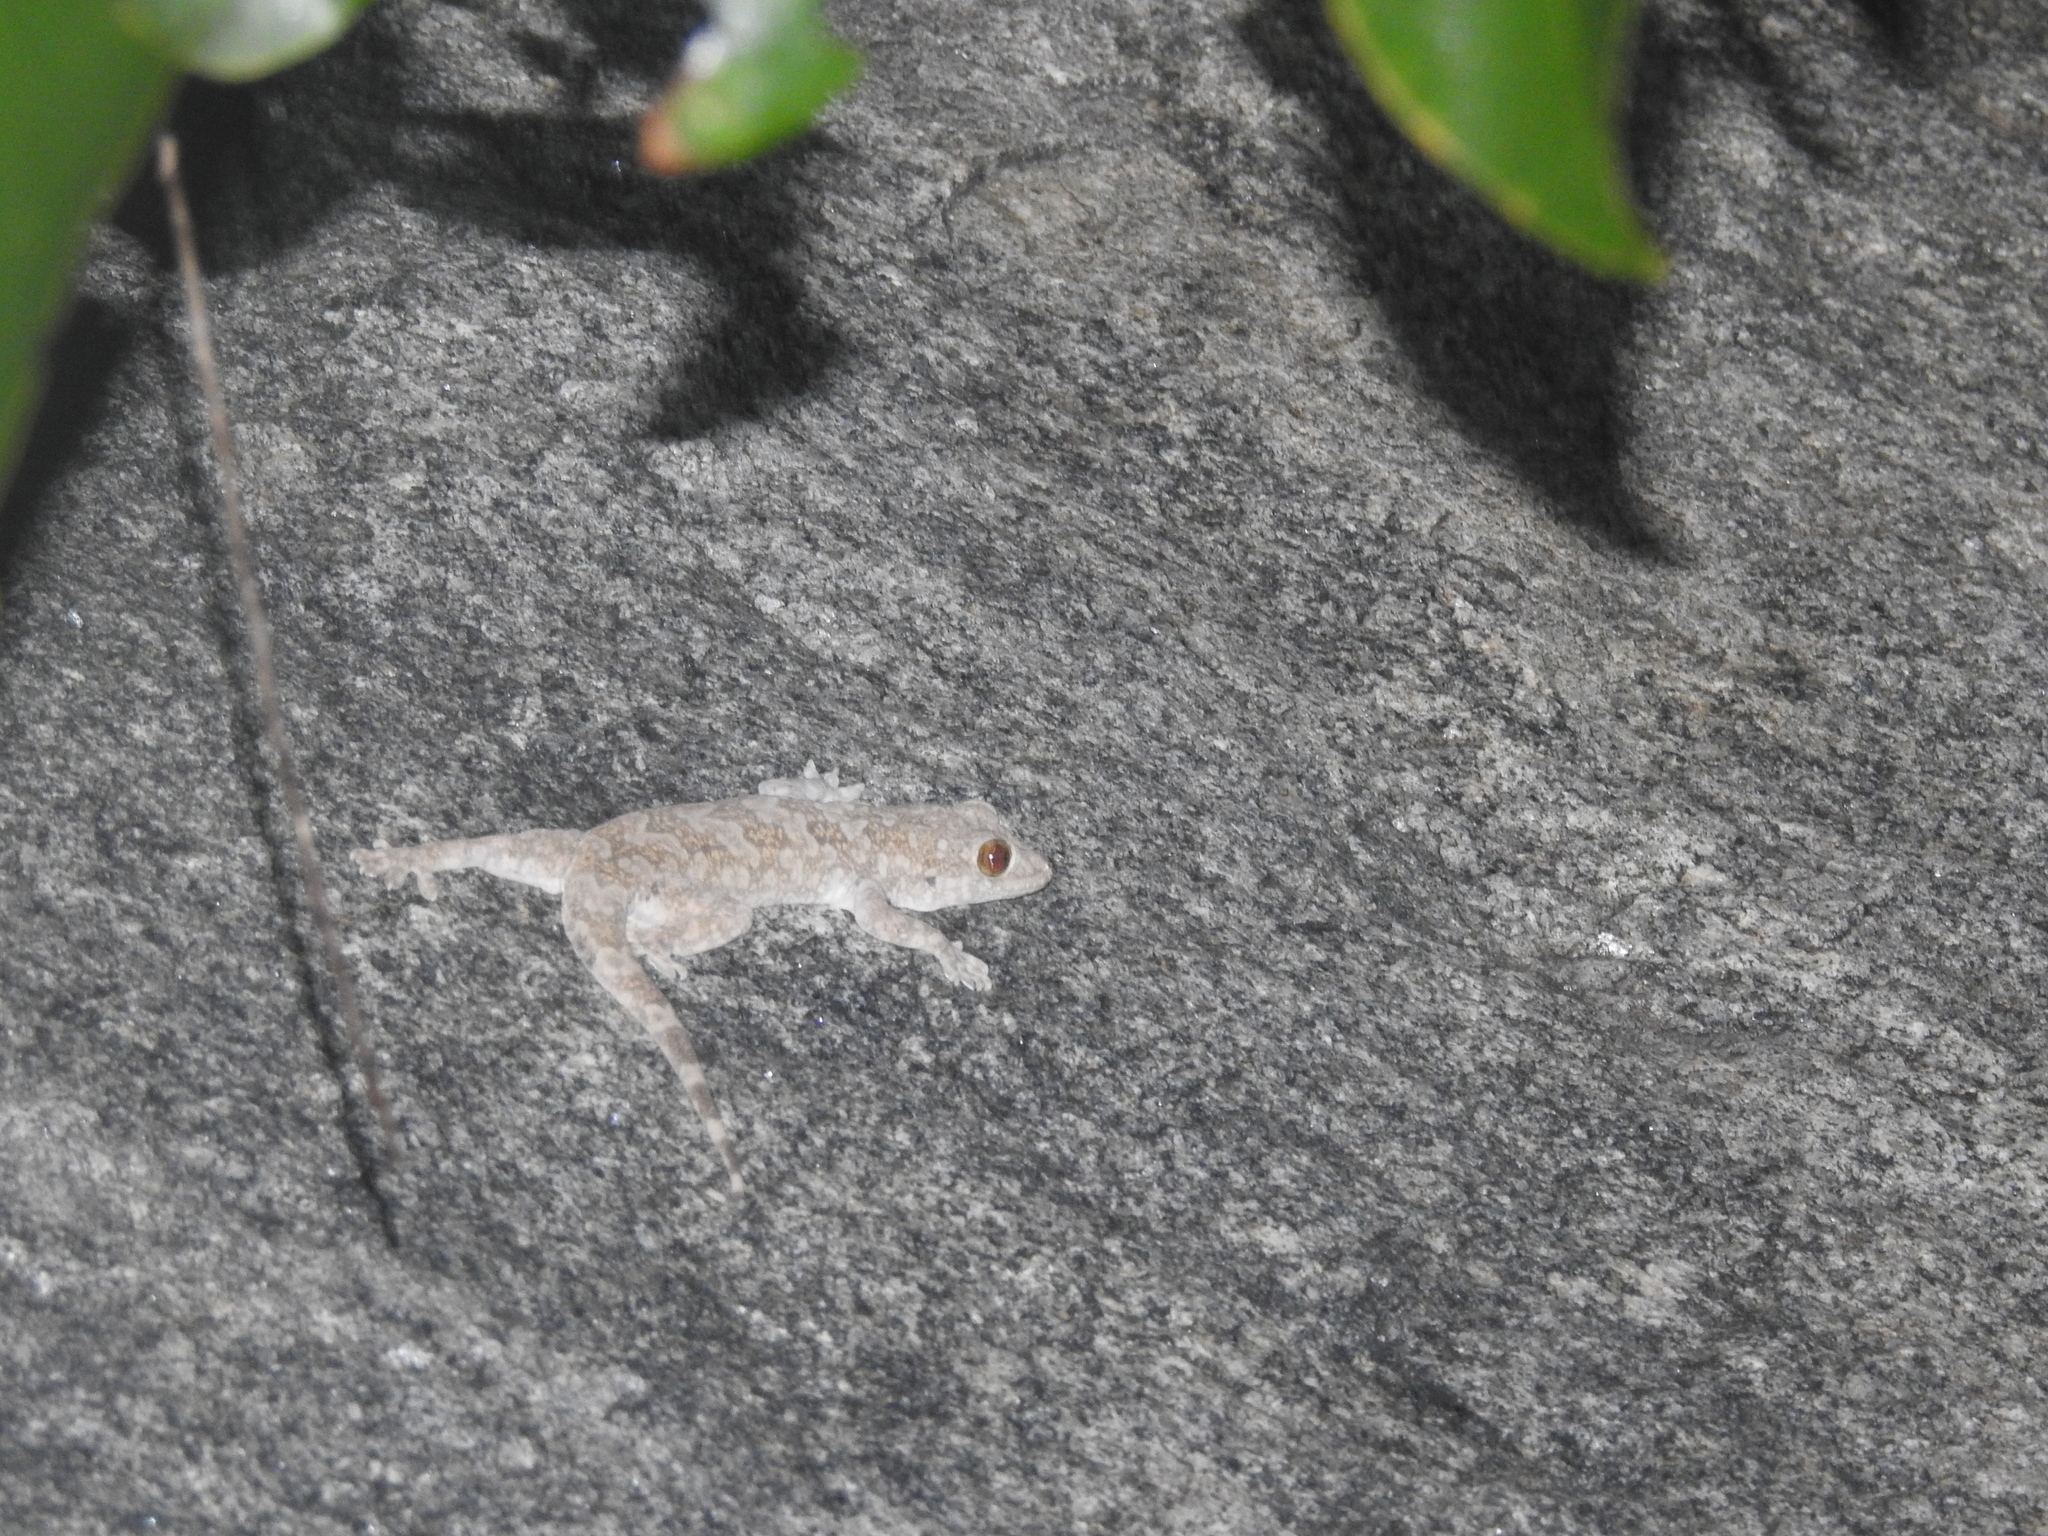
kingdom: Animalia
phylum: Chordata
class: Squamata
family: Gekkonidae
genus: Hemidactylus
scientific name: Hemidactylus giganteus
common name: Giant gecko
